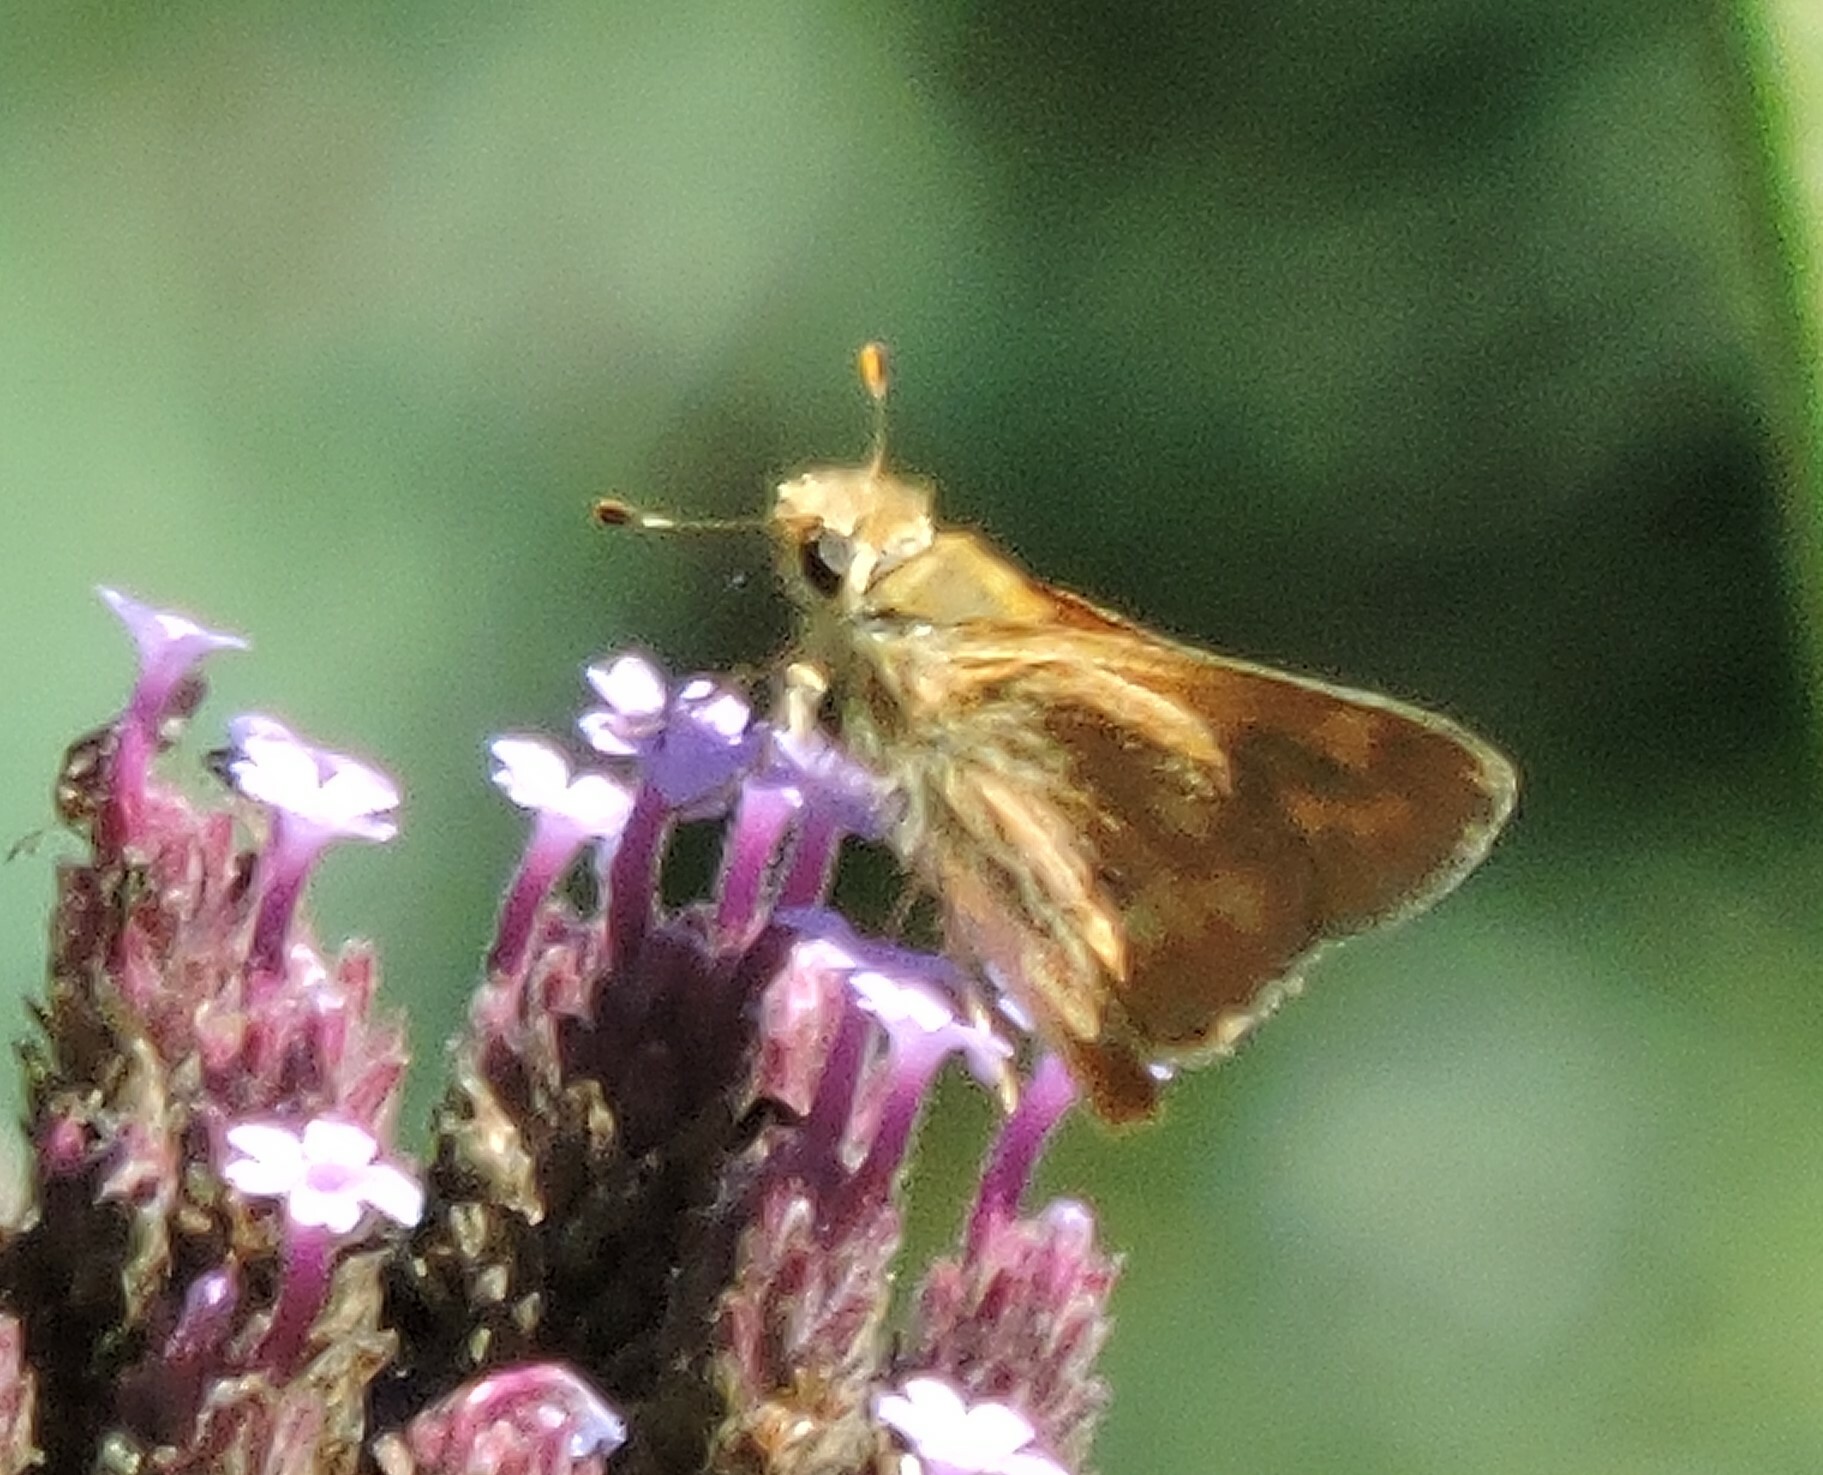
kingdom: Animalia
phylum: Arthropoda
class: Insecta
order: Lepidoptera
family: Hesperiidae
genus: Ochlodes
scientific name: Ochlodes sylvanoides
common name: Woodland skipper
